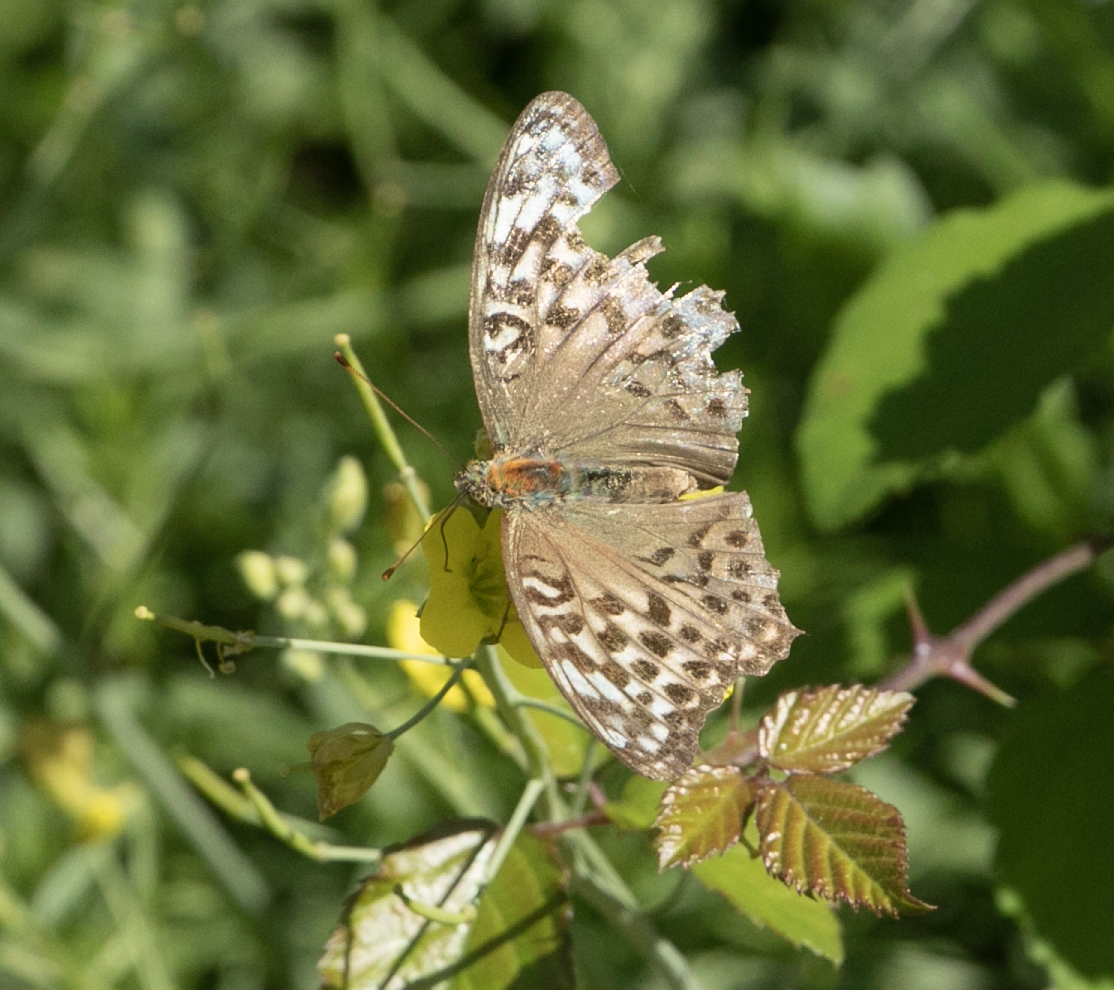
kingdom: Animalia
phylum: Arthropoda
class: Insecta
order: Lepidoptera
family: Nymphalidae
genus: Argynnis
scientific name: Argynnis paphia
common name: Silver-washed fritillary
